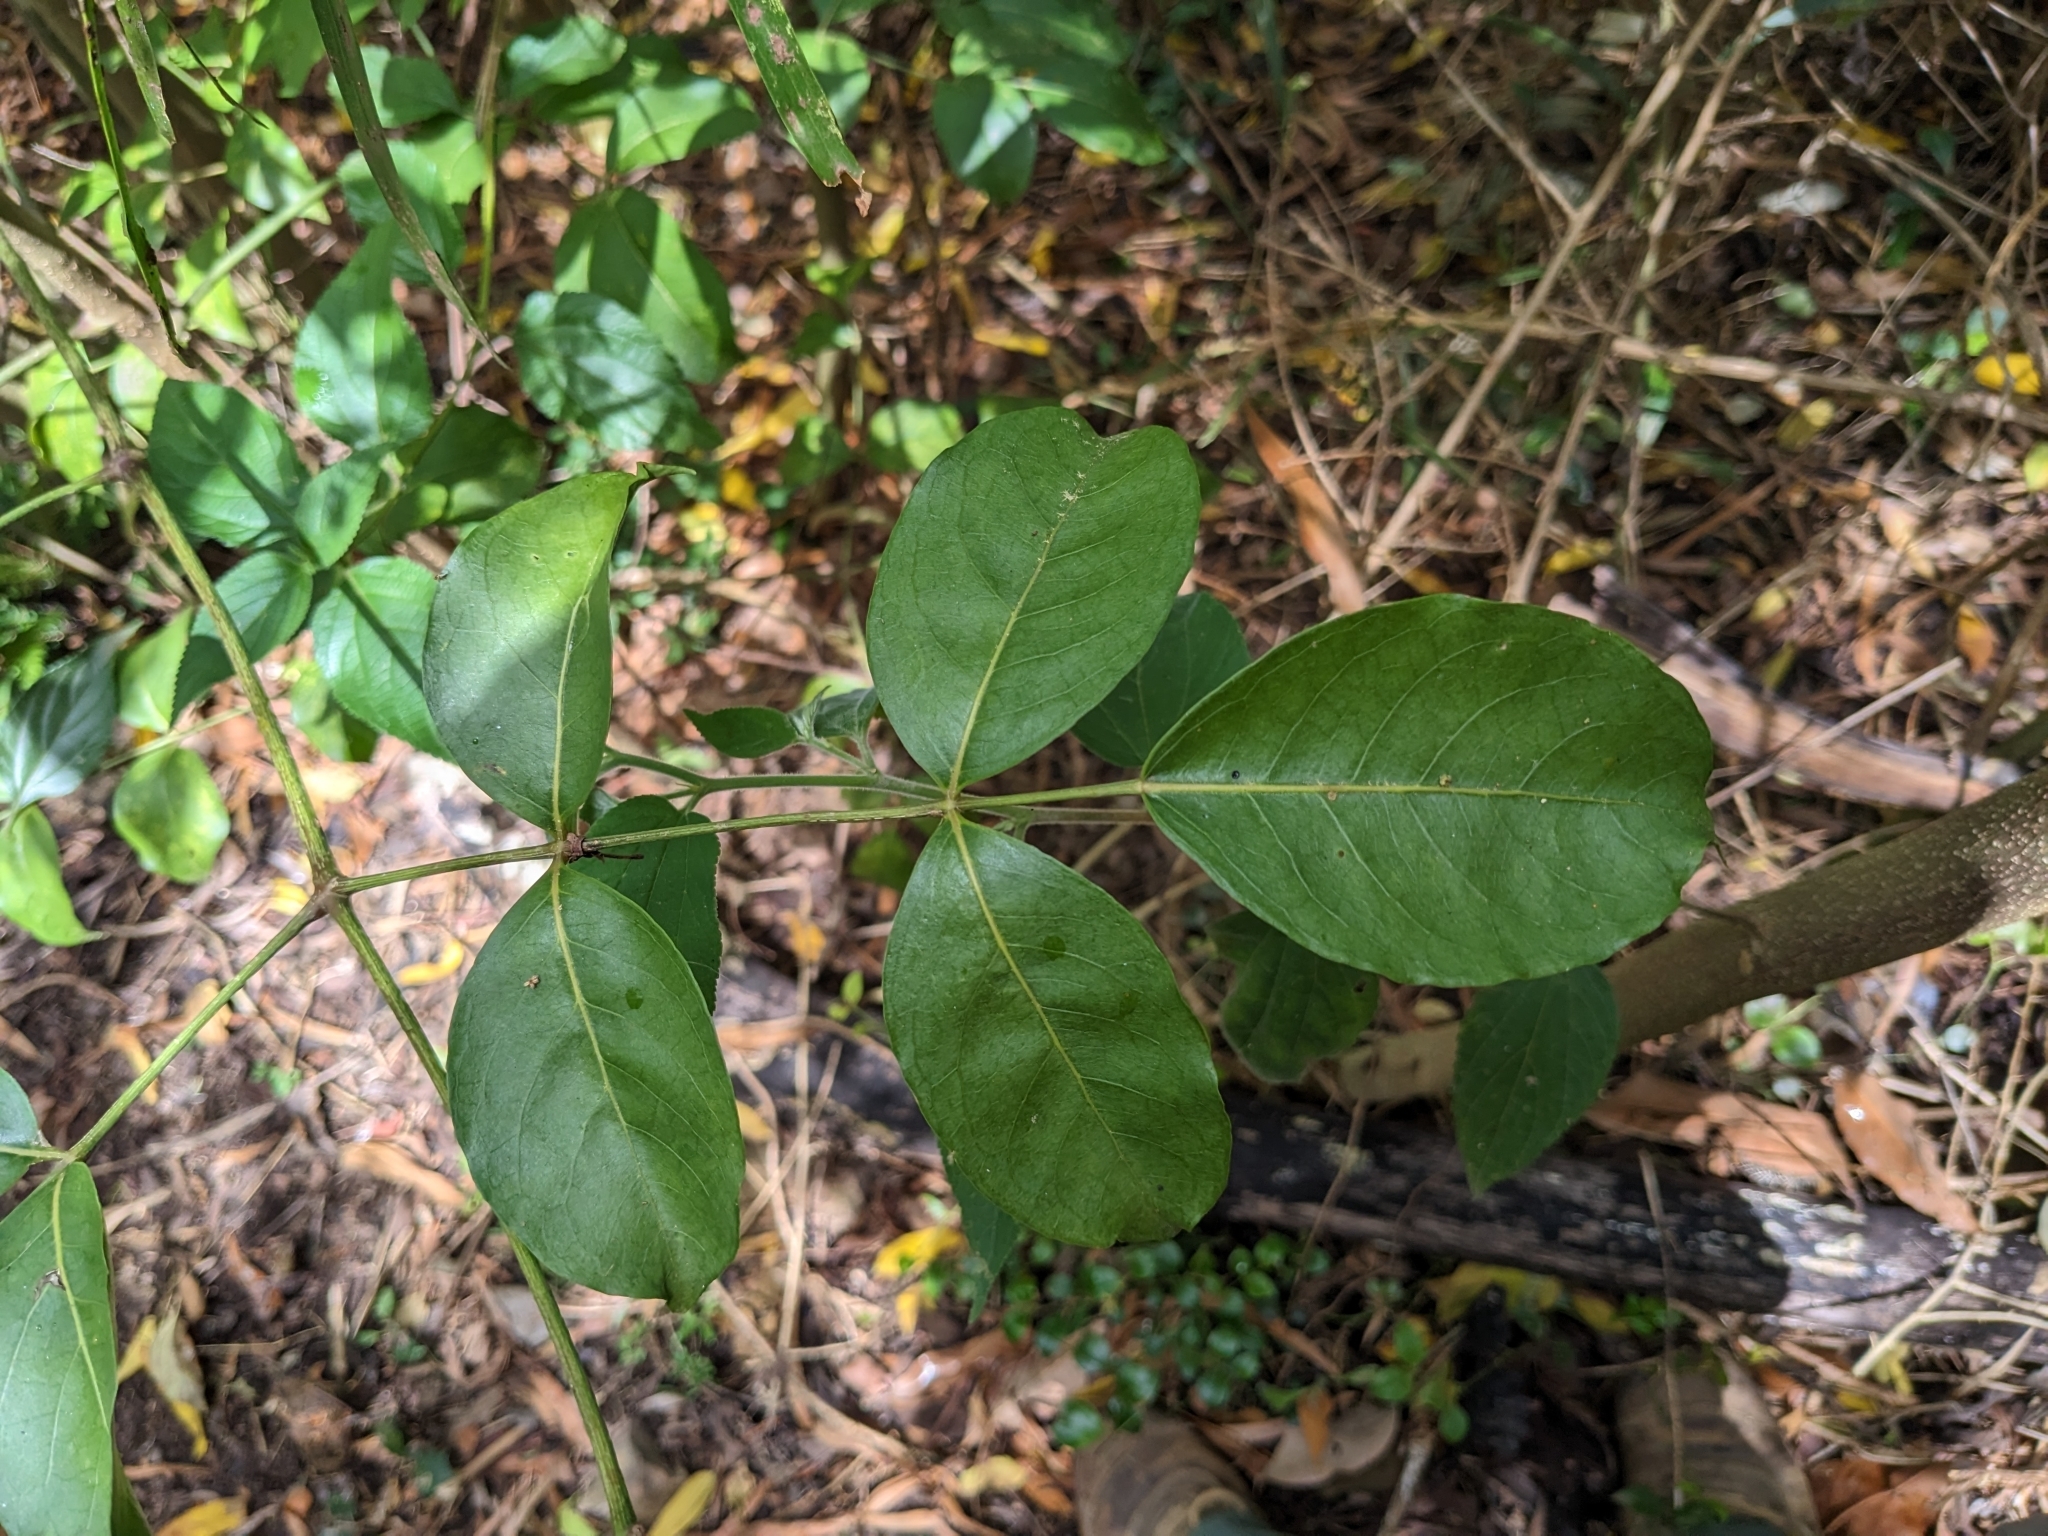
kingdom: Plantae
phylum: Tracheophyta
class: Magnoliopsida
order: Apiales
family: Araliaceae
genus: Polyscias
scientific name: Polyscias elegans
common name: Mowbulan whitewood
